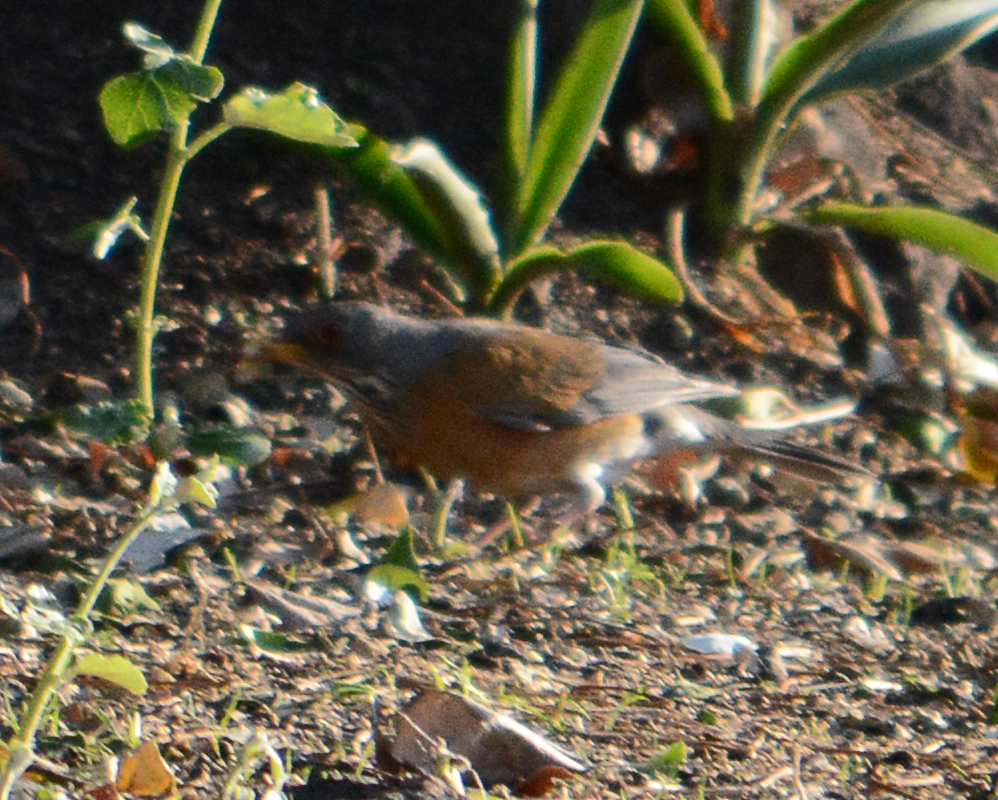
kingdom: Animalia
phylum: Chordata
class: Aves
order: Passeriformes
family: Turdidae
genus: Turdus
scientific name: Turdus rufopalliatus
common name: Rufous-backed robin
